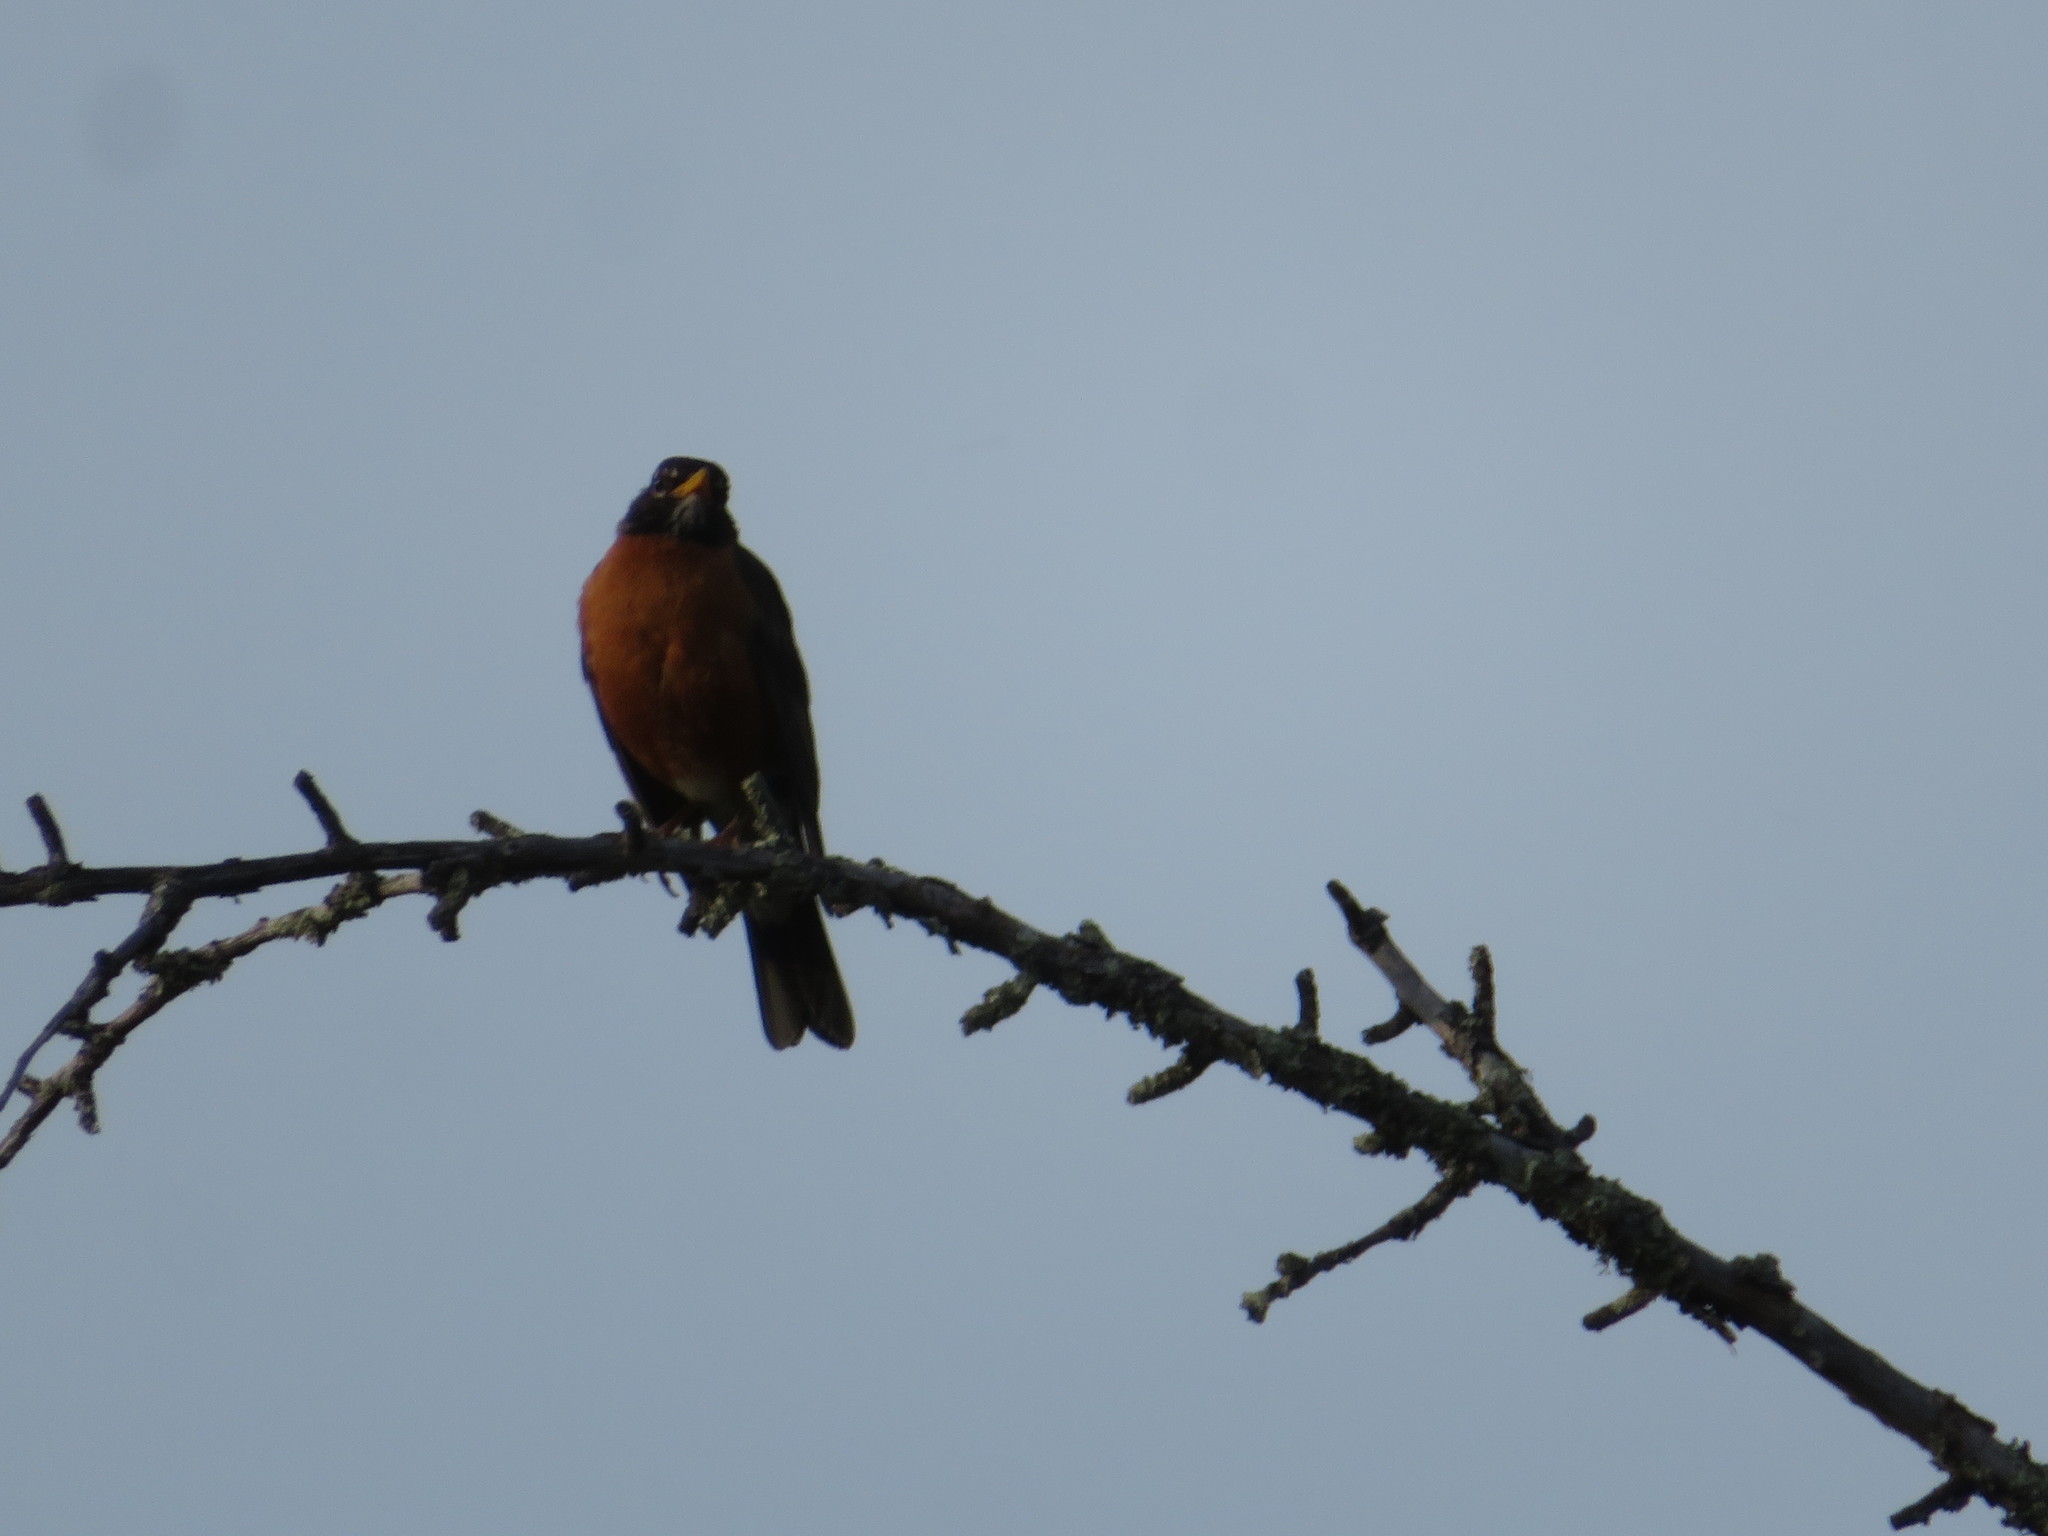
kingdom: Animalia
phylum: Chordata
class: Aves
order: Passeriformes
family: Turdidae
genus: Turdus
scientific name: Turdus migratorius
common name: American robin
